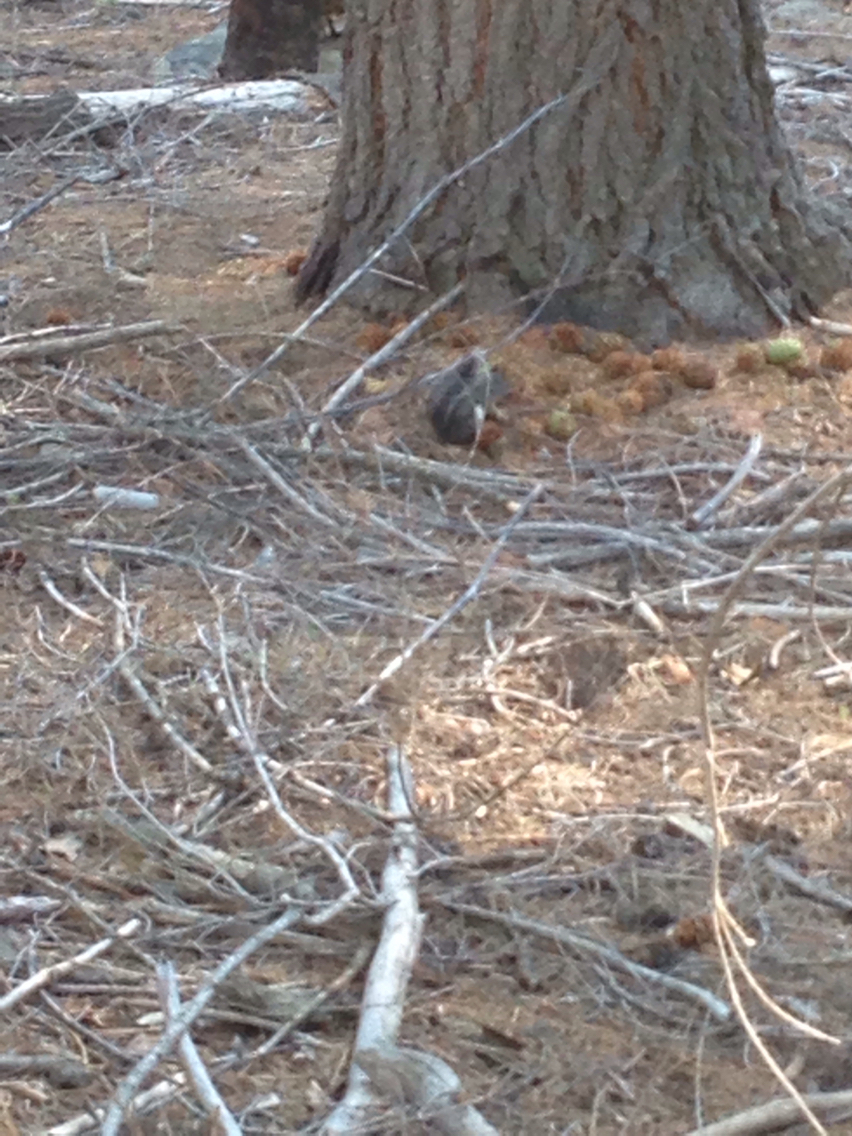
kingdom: Animalia
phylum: Chordata
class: Mammalia
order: Rodentia
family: Sciuridae
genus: Tamiasciurus
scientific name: Tamiasciurus douglasii
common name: Douglas's squirrel
